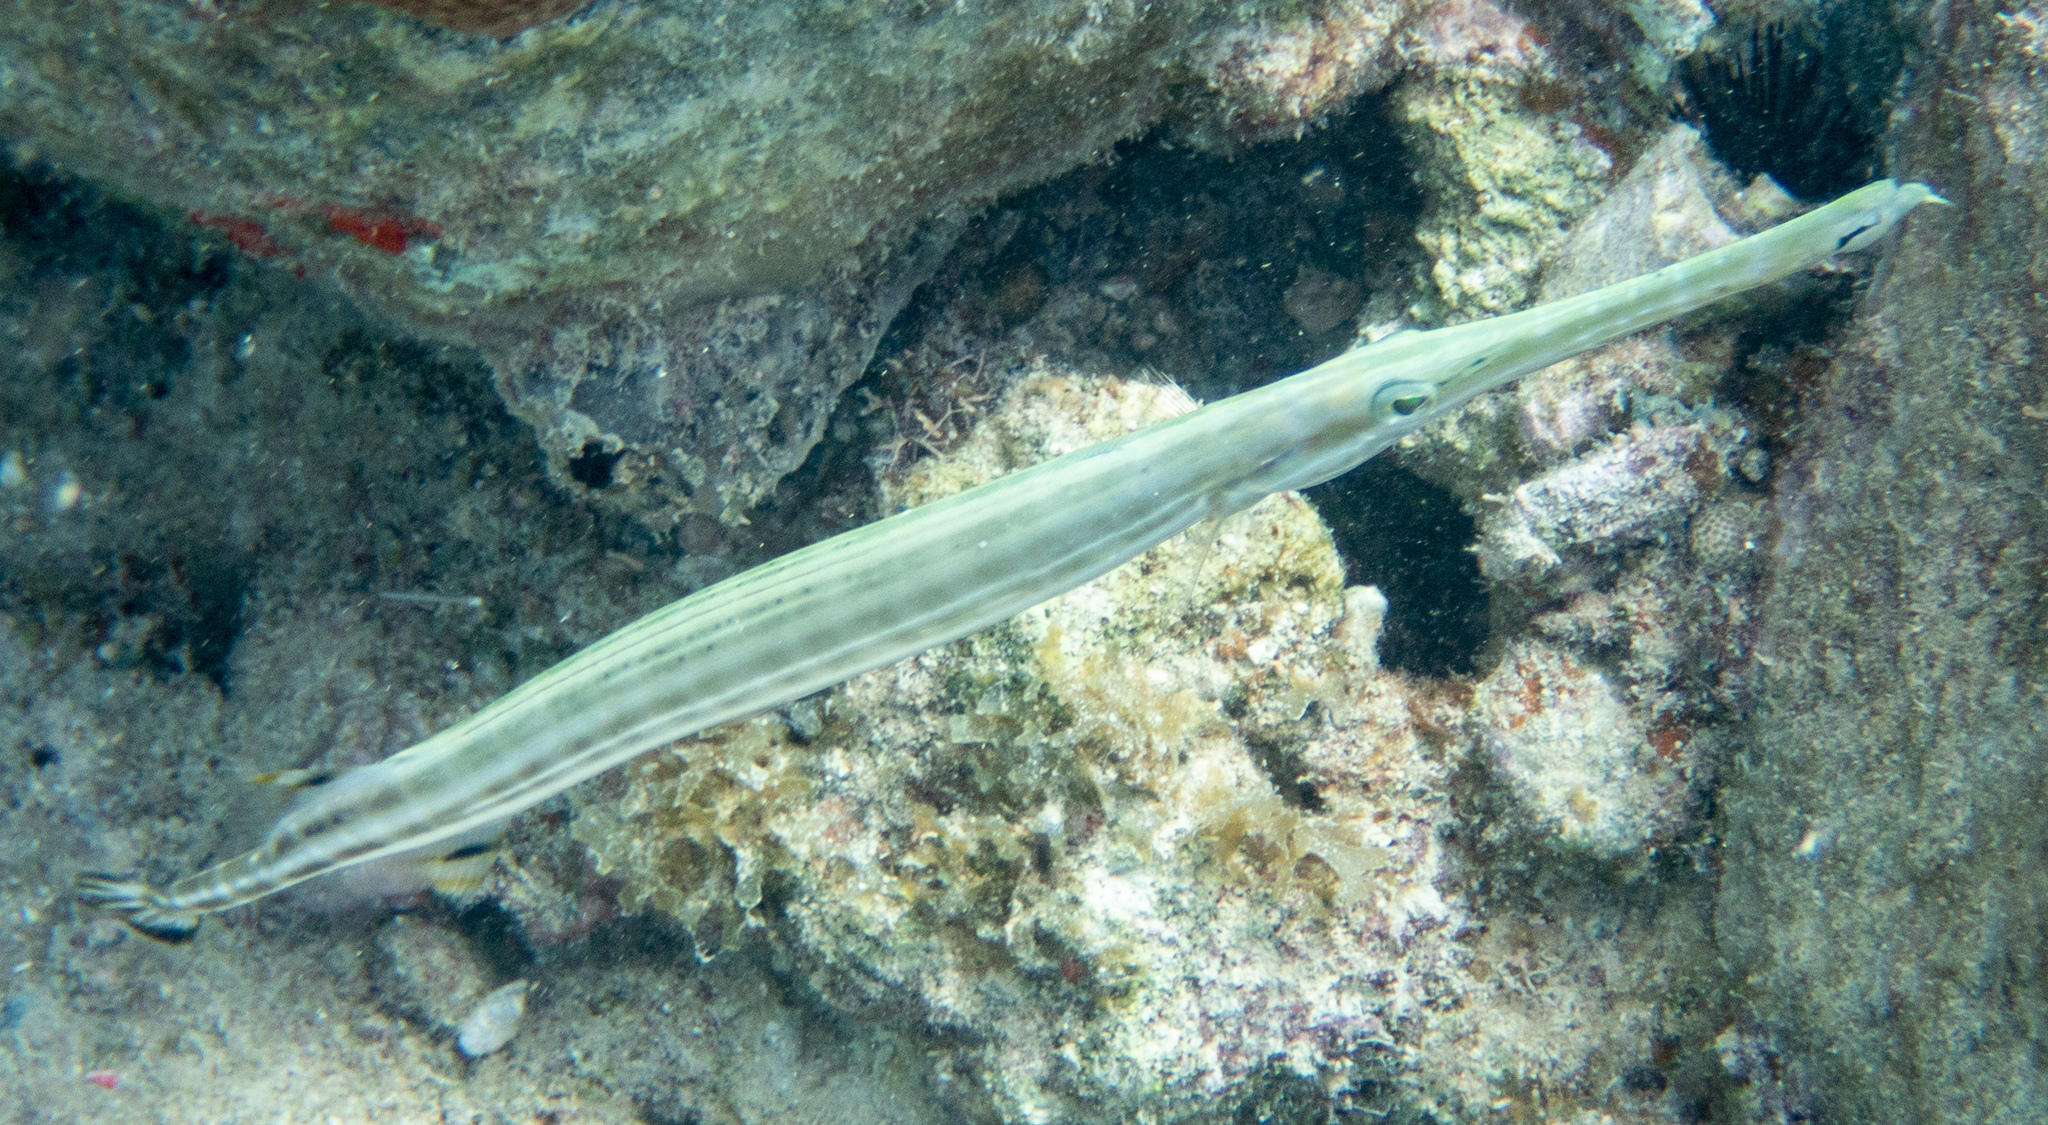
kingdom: Animalia
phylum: Chordata
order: Syngnathiformes
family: Aulostomidae
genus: Aulostomus
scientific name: Aulostomus maculatus
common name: West atlantic trumpetfish
